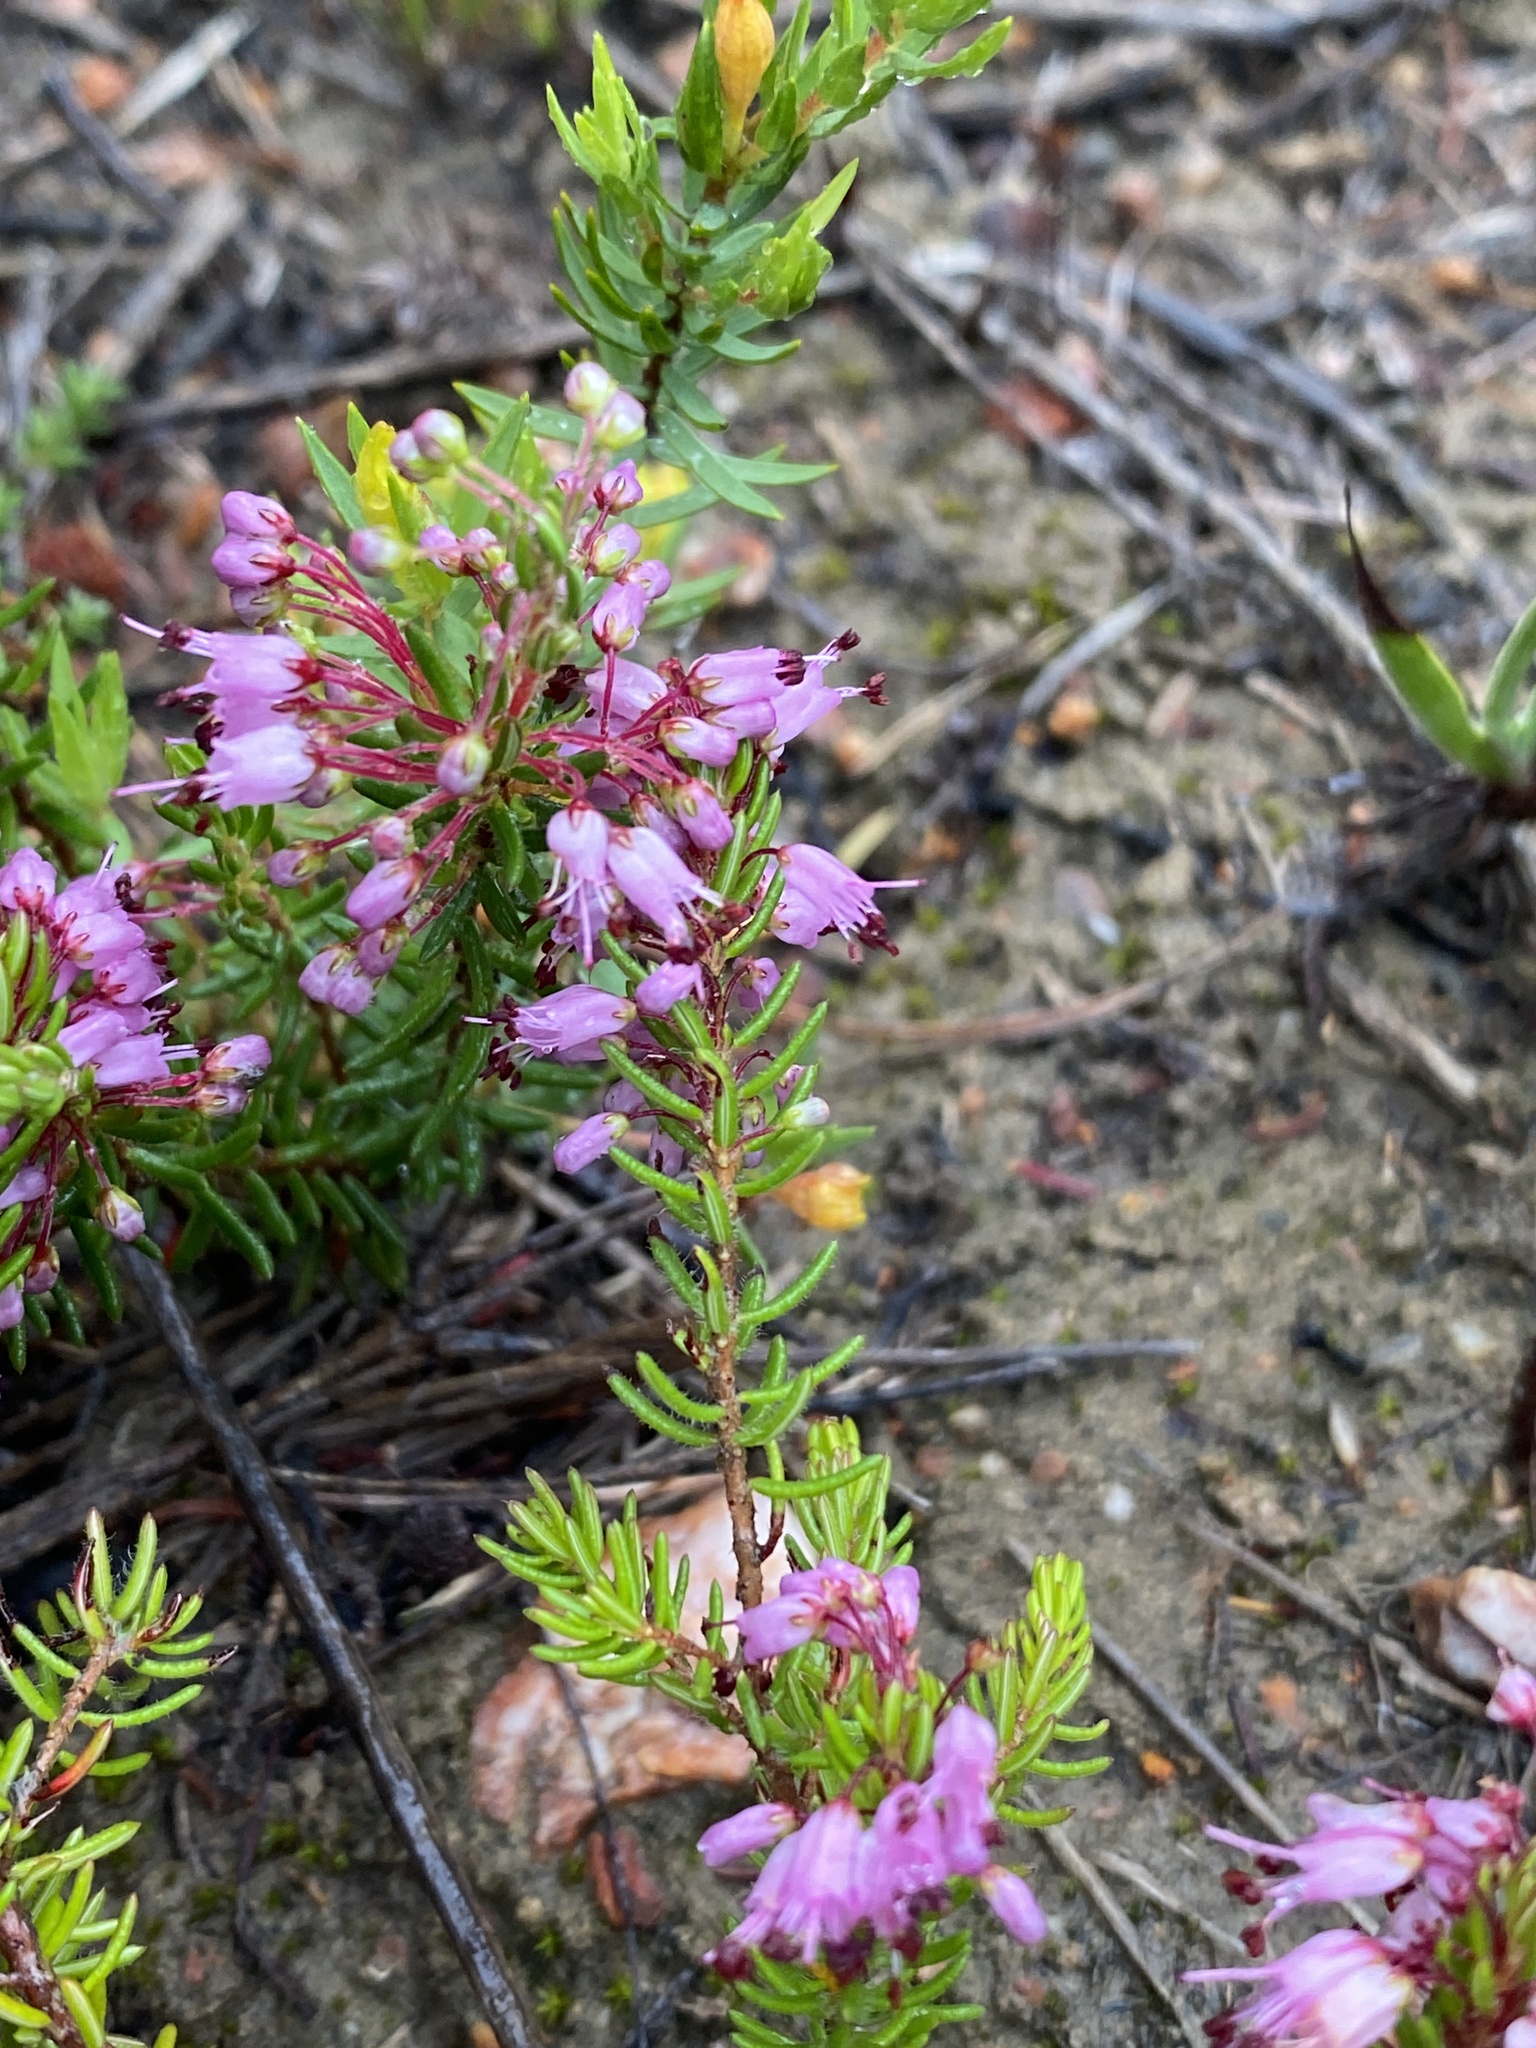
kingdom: Plantae
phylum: Tracheophyta
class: Magnoliopsida
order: Ericales
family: Ericaceae
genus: Erica
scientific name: Erica nudiflora
